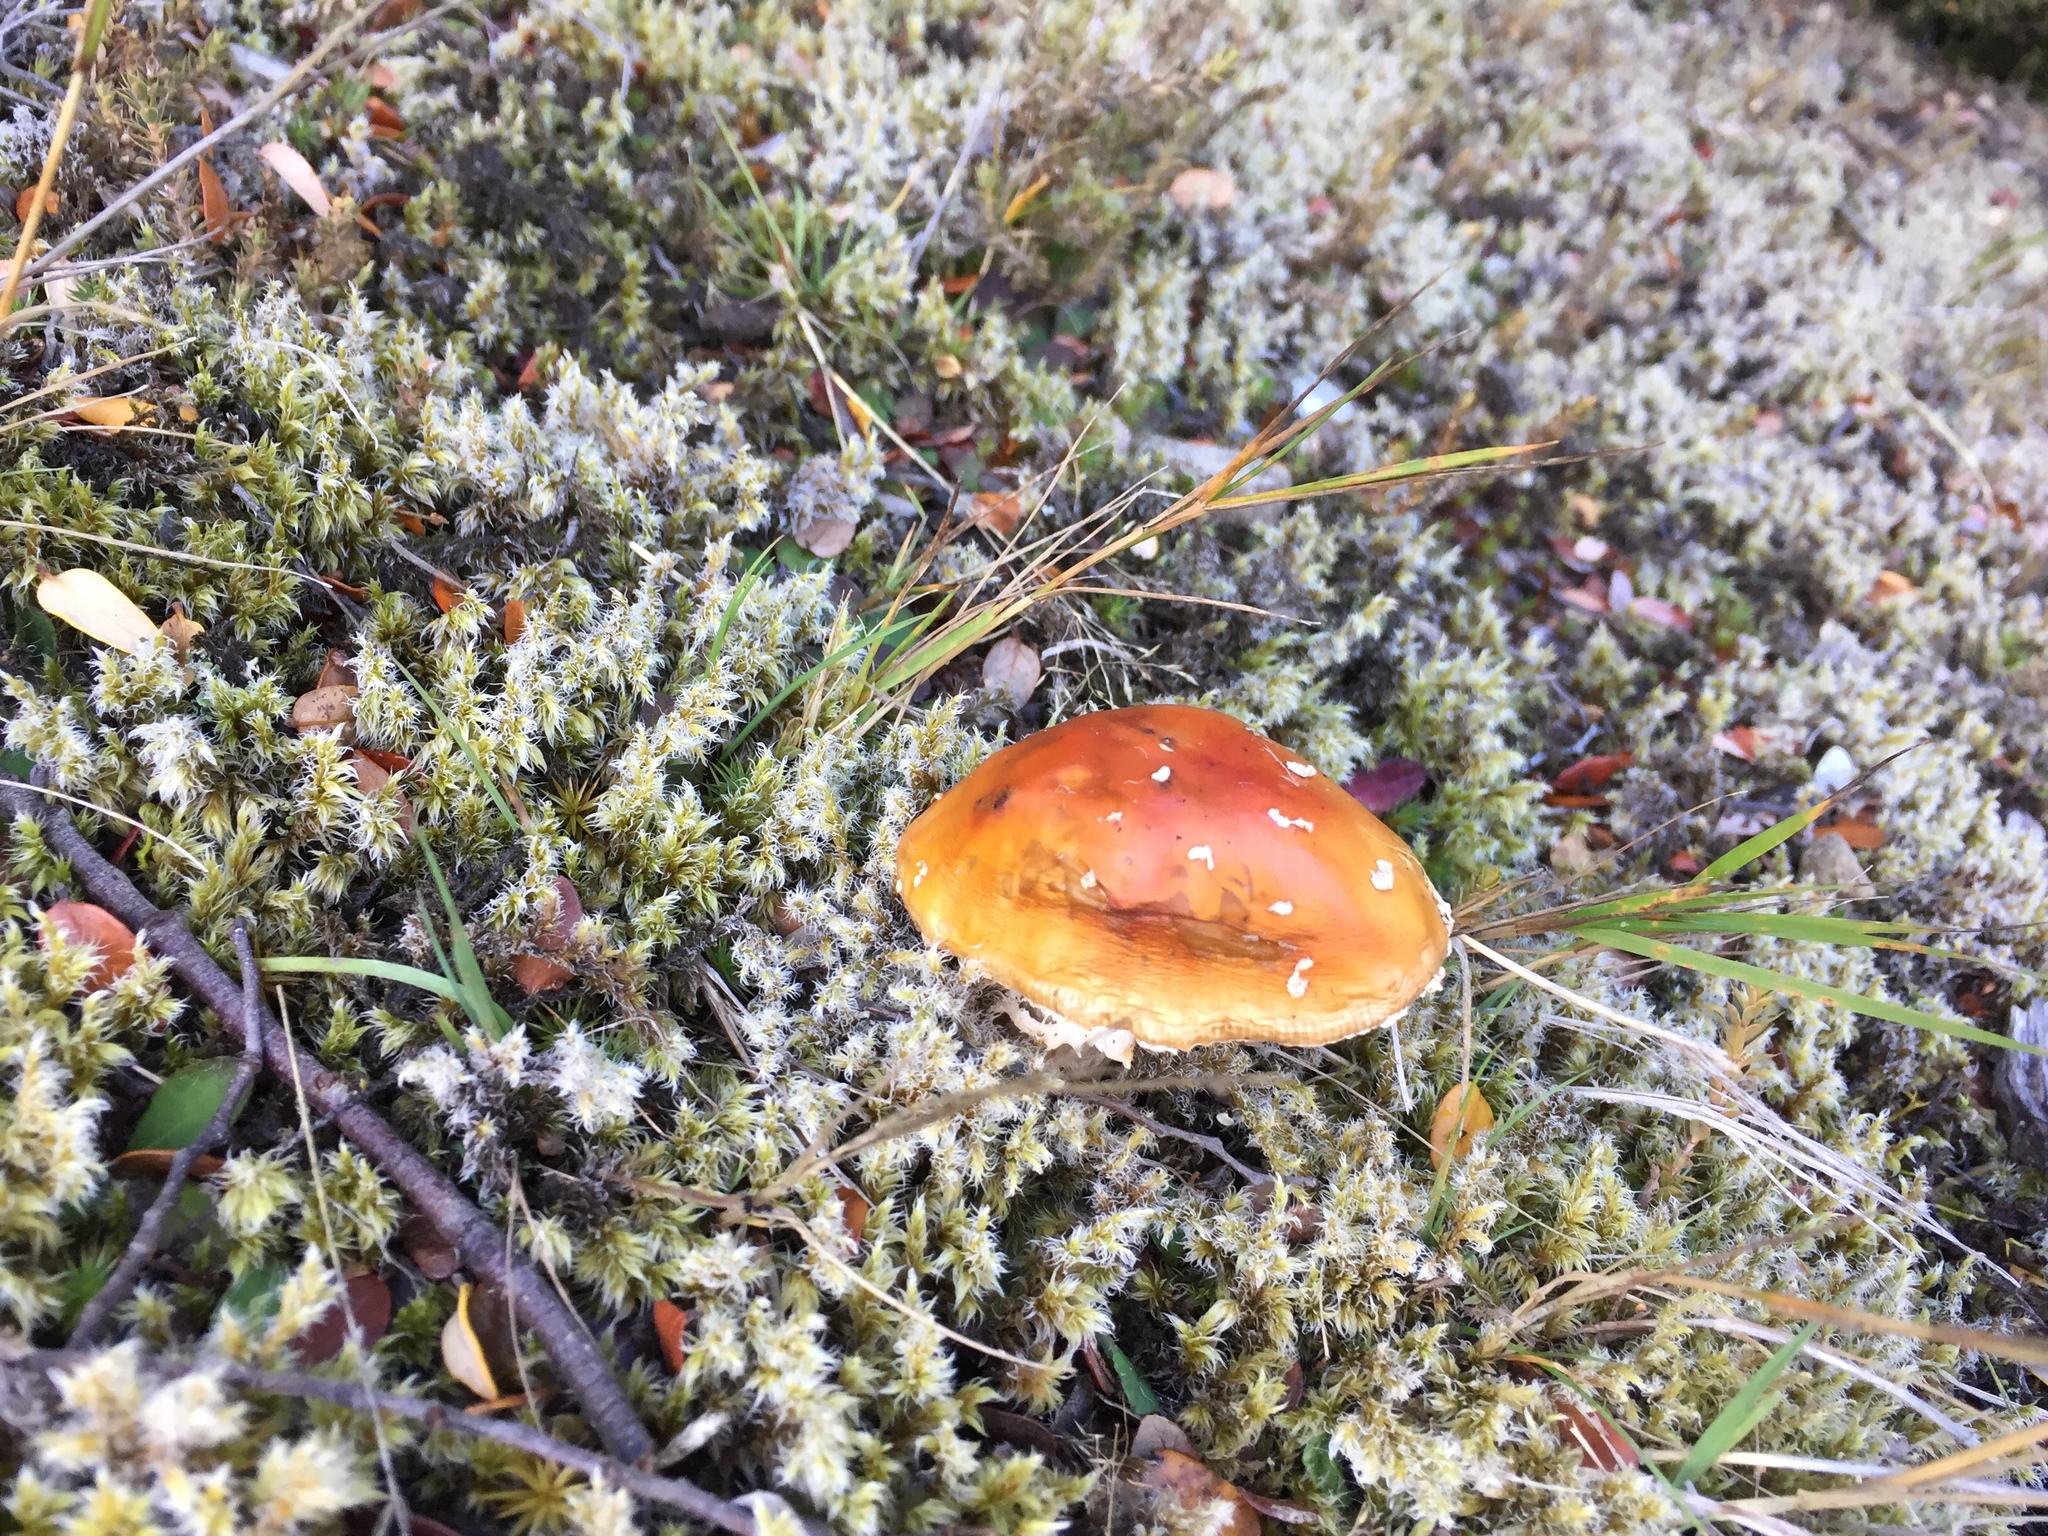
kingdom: Fungi
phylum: Basidiomycota
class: Agaricomycetes
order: Agaricales
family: Amanitaceae
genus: Amanita
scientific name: Amanita muscaria
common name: Fly agaric
